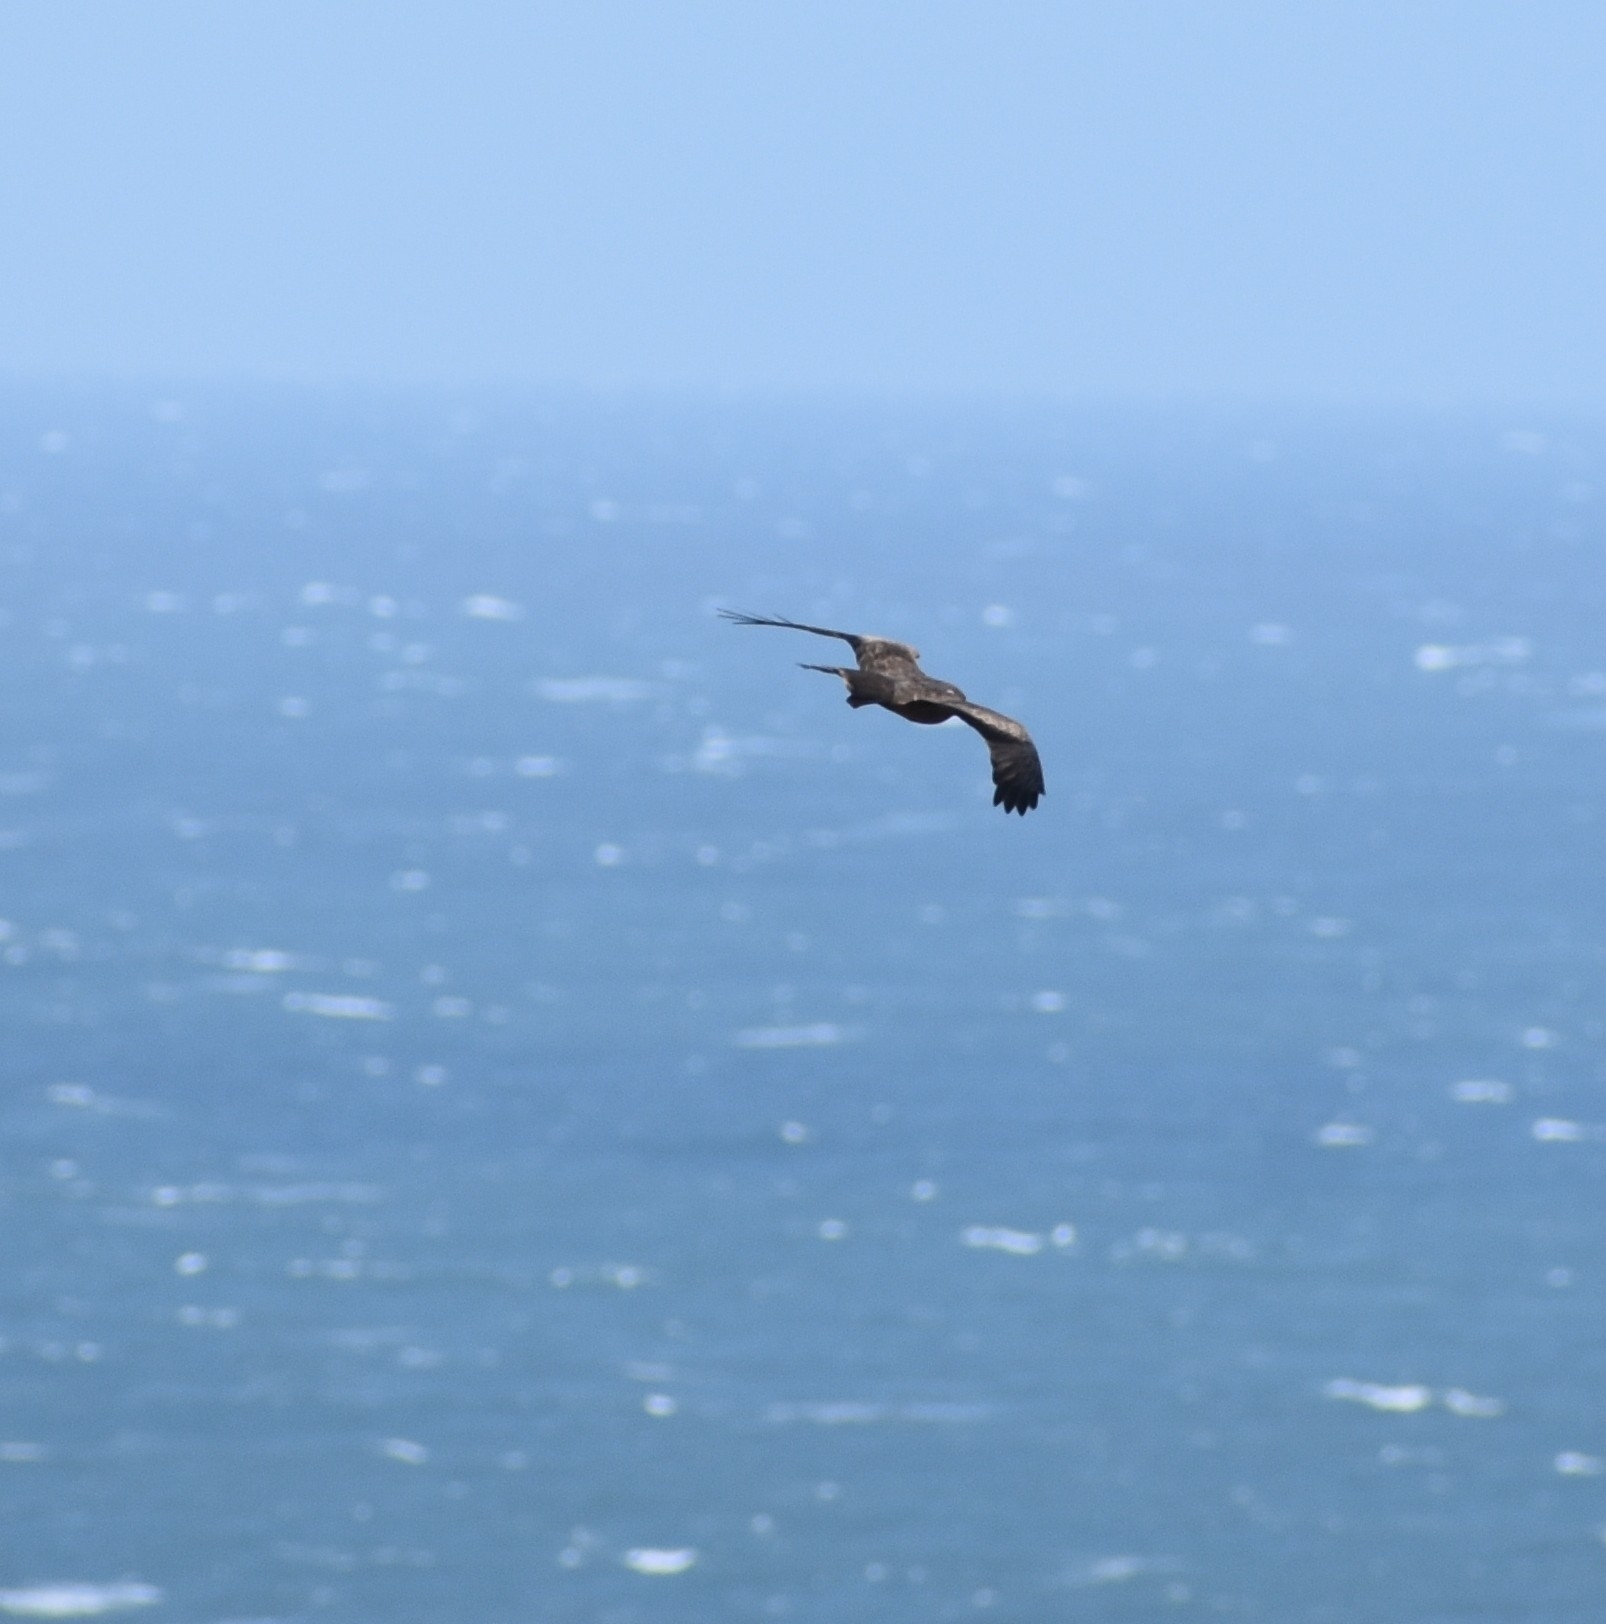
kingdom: Animalia
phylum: Chordata
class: Aves
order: Accipitriformes
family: Accipitridae
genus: Milvus
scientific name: Milvus migrans
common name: Black kite
